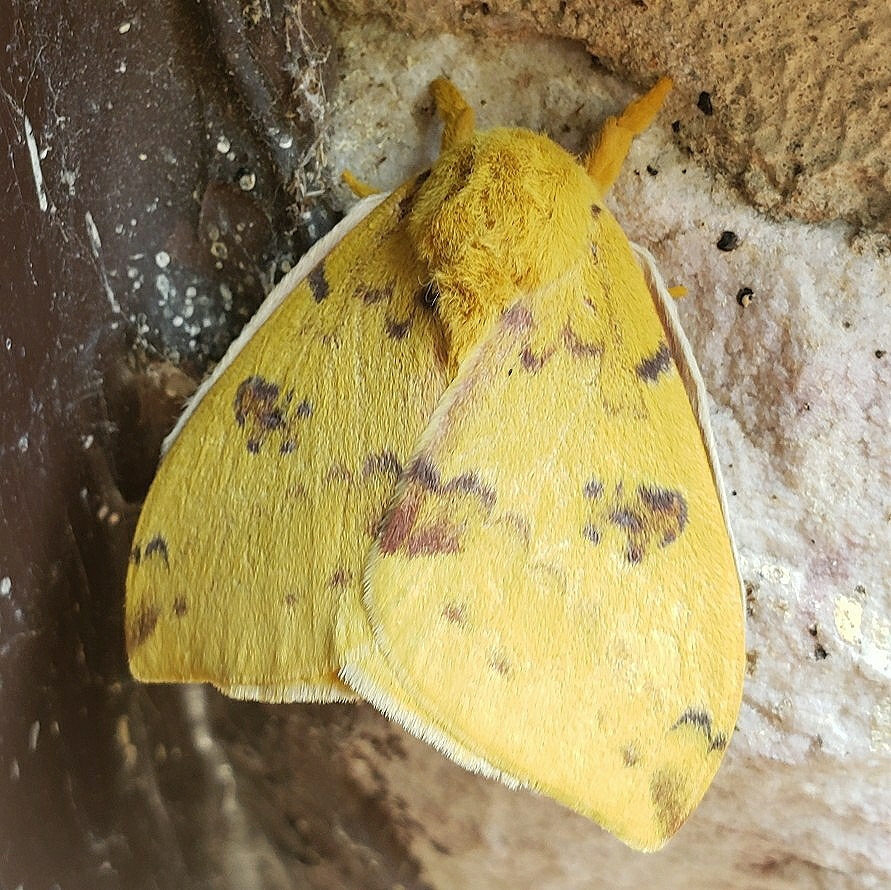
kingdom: Animalia
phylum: Arthropoda
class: Insecta
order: Lepidoptera
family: Saturniidae
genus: Automeris
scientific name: Automeris io
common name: Io moth
